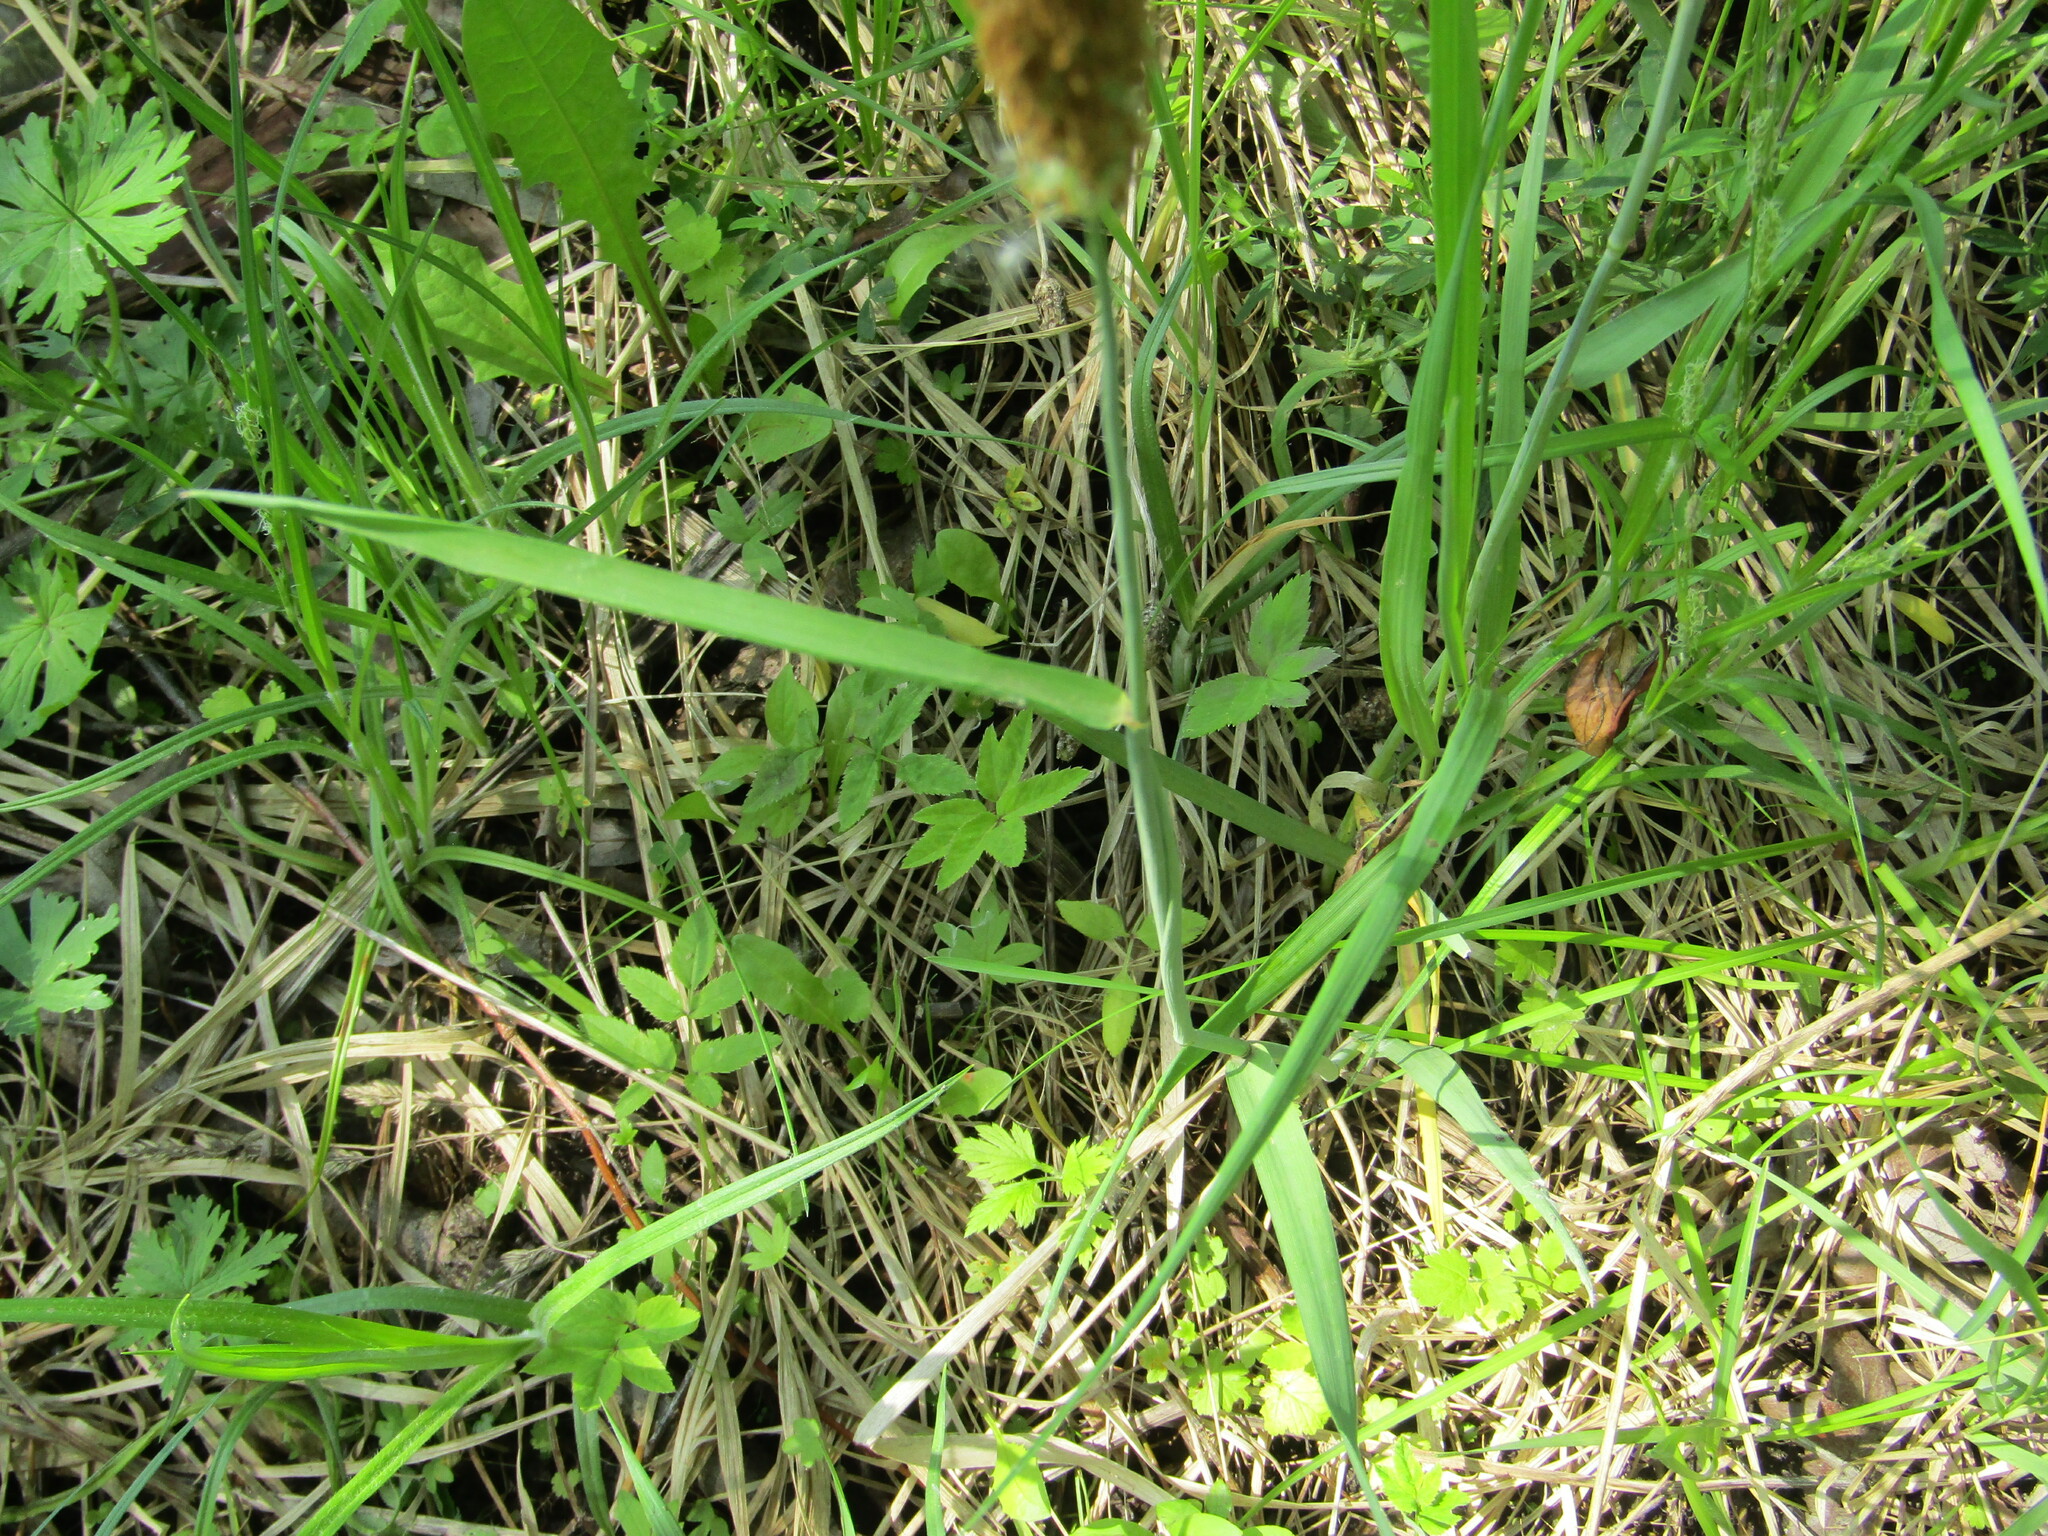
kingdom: Plantae
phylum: Tracheophyta
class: Liliopsida
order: Poales
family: Poaceae
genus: Alopecurus
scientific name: Alopecurus pratensis
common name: Meadow foxtail
